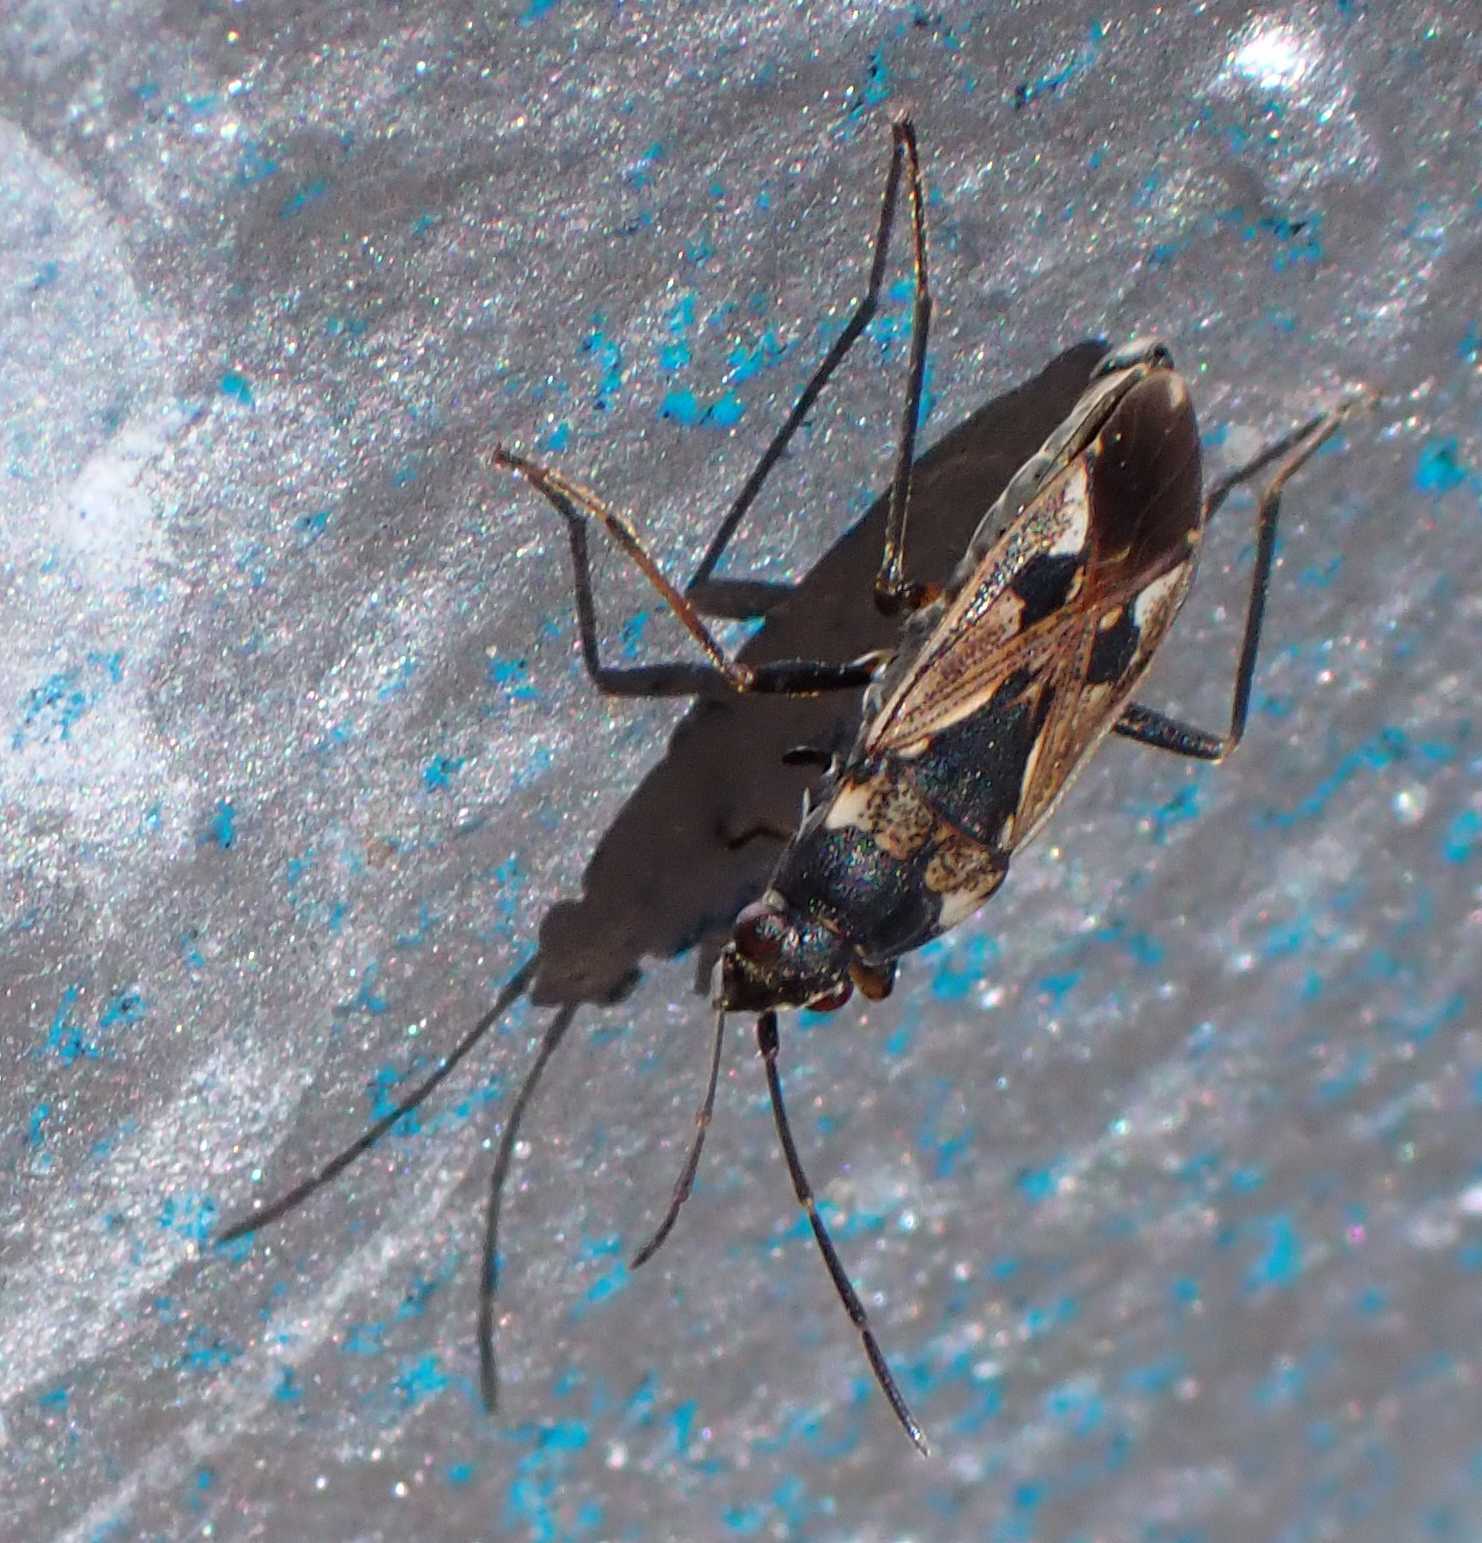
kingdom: Animalia
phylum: Arthropoda
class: Insecta
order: Hemiptera
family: Rhyparochromidae
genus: Rhyparochromus
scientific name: Rhyparochromus vulgaris
